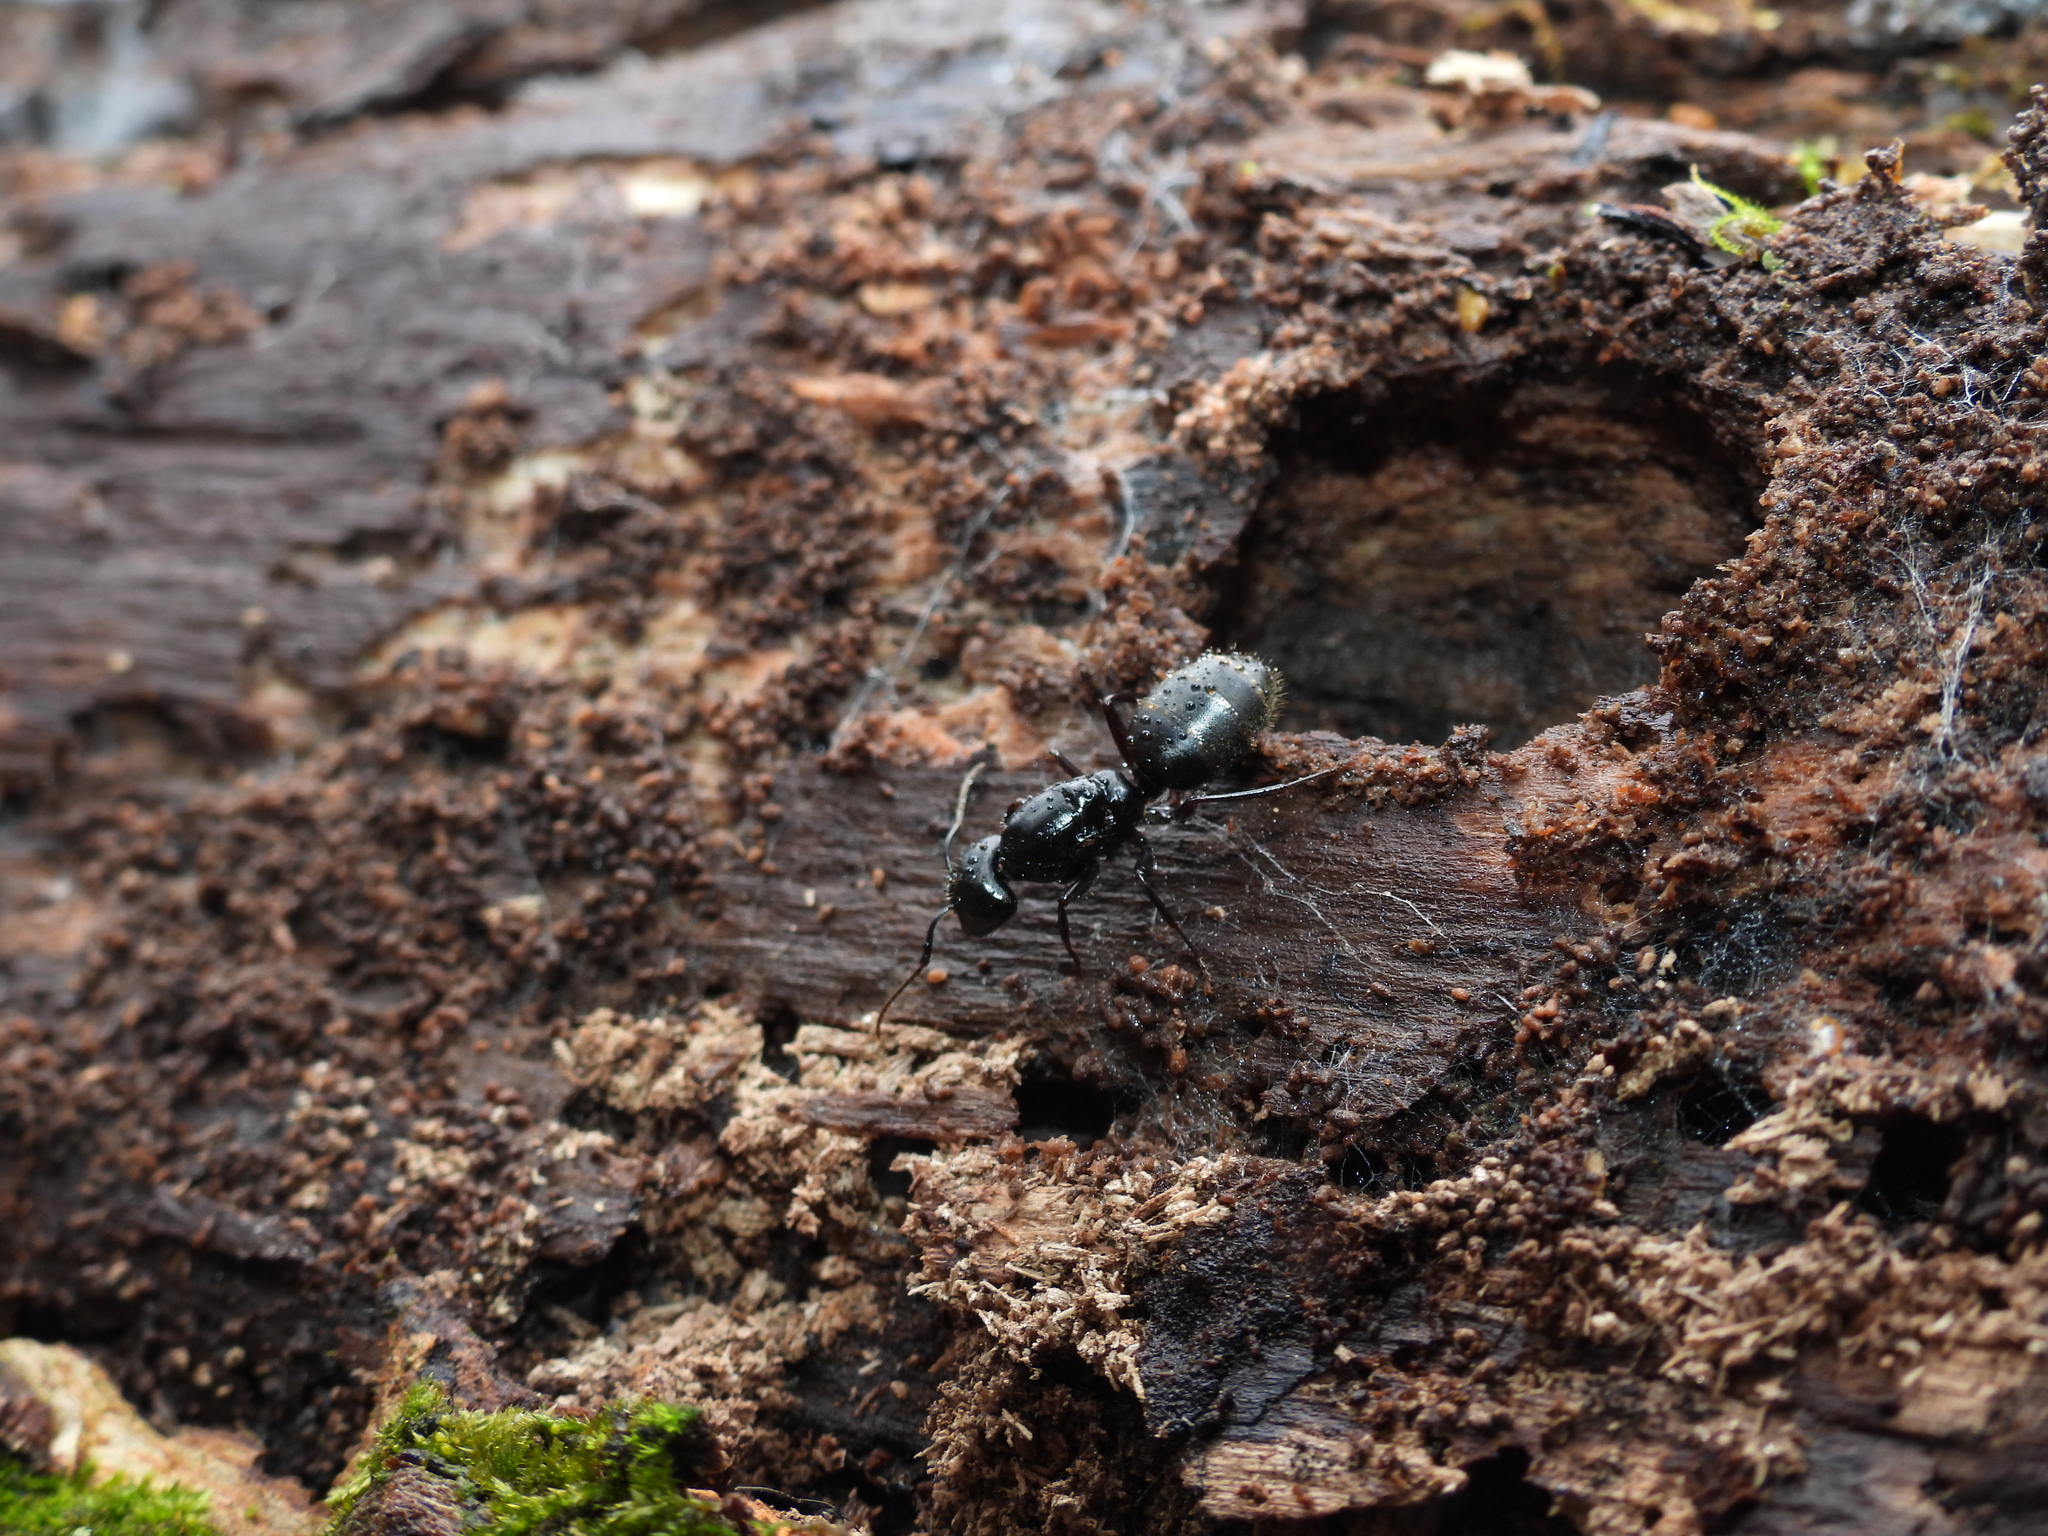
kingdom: Animalia
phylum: Arthropoda
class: Insecta
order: Hymenoptera
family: Formicidae
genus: Camponotus
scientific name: Camponotus pennsylvanicus
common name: Black carpenter ant
